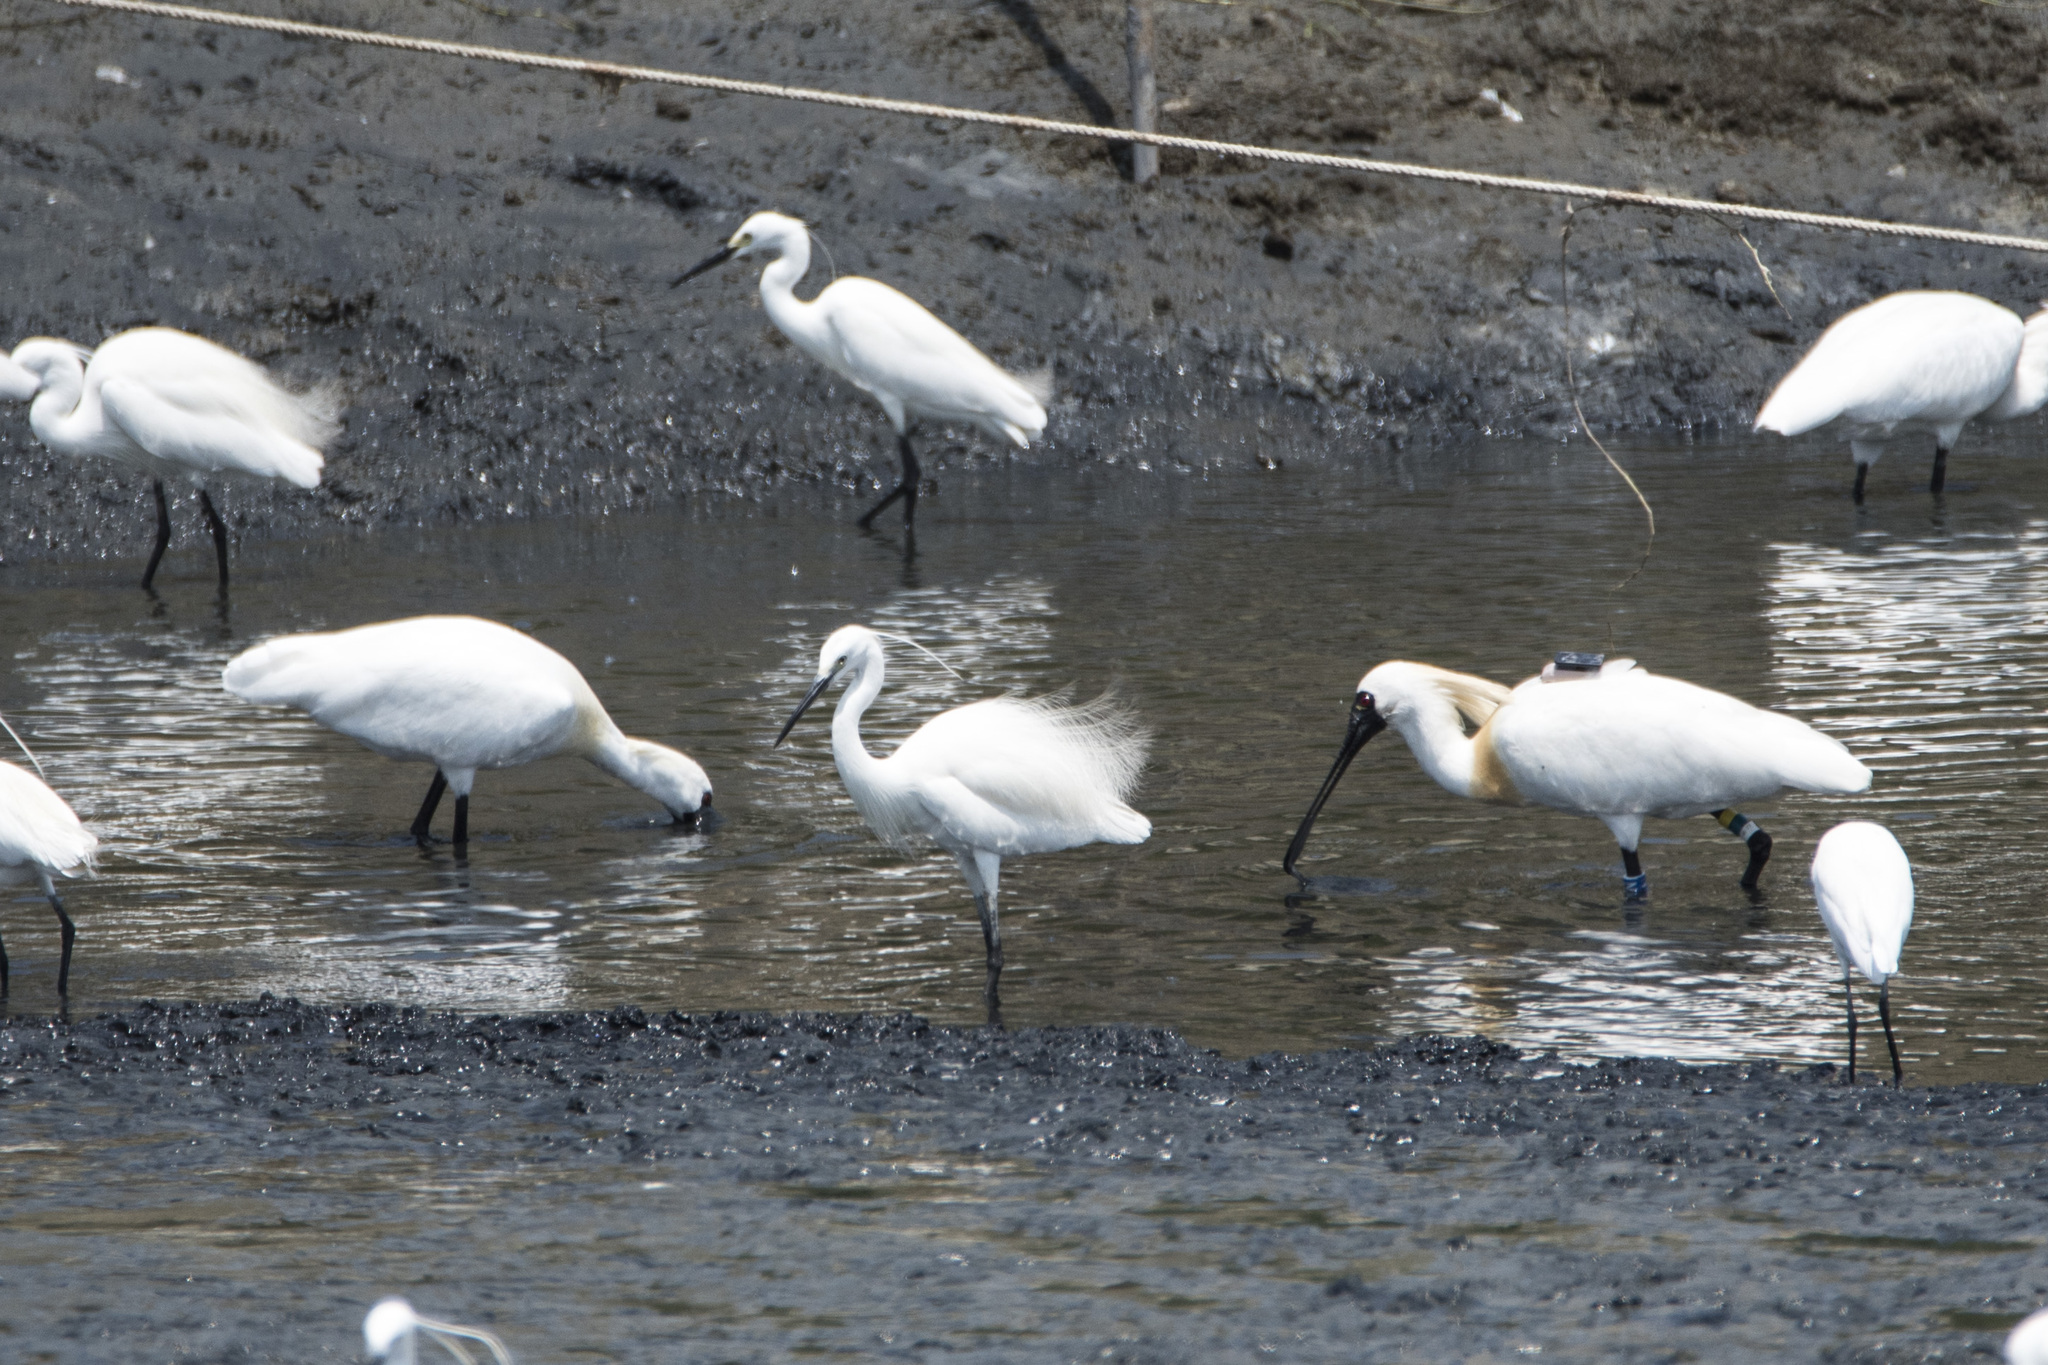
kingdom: Animalia
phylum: Chordata
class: Aves
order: Pelecaniformes
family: Threskiornithidae
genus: Platalea
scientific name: Platalea minor
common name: Black-faced spoonbill
